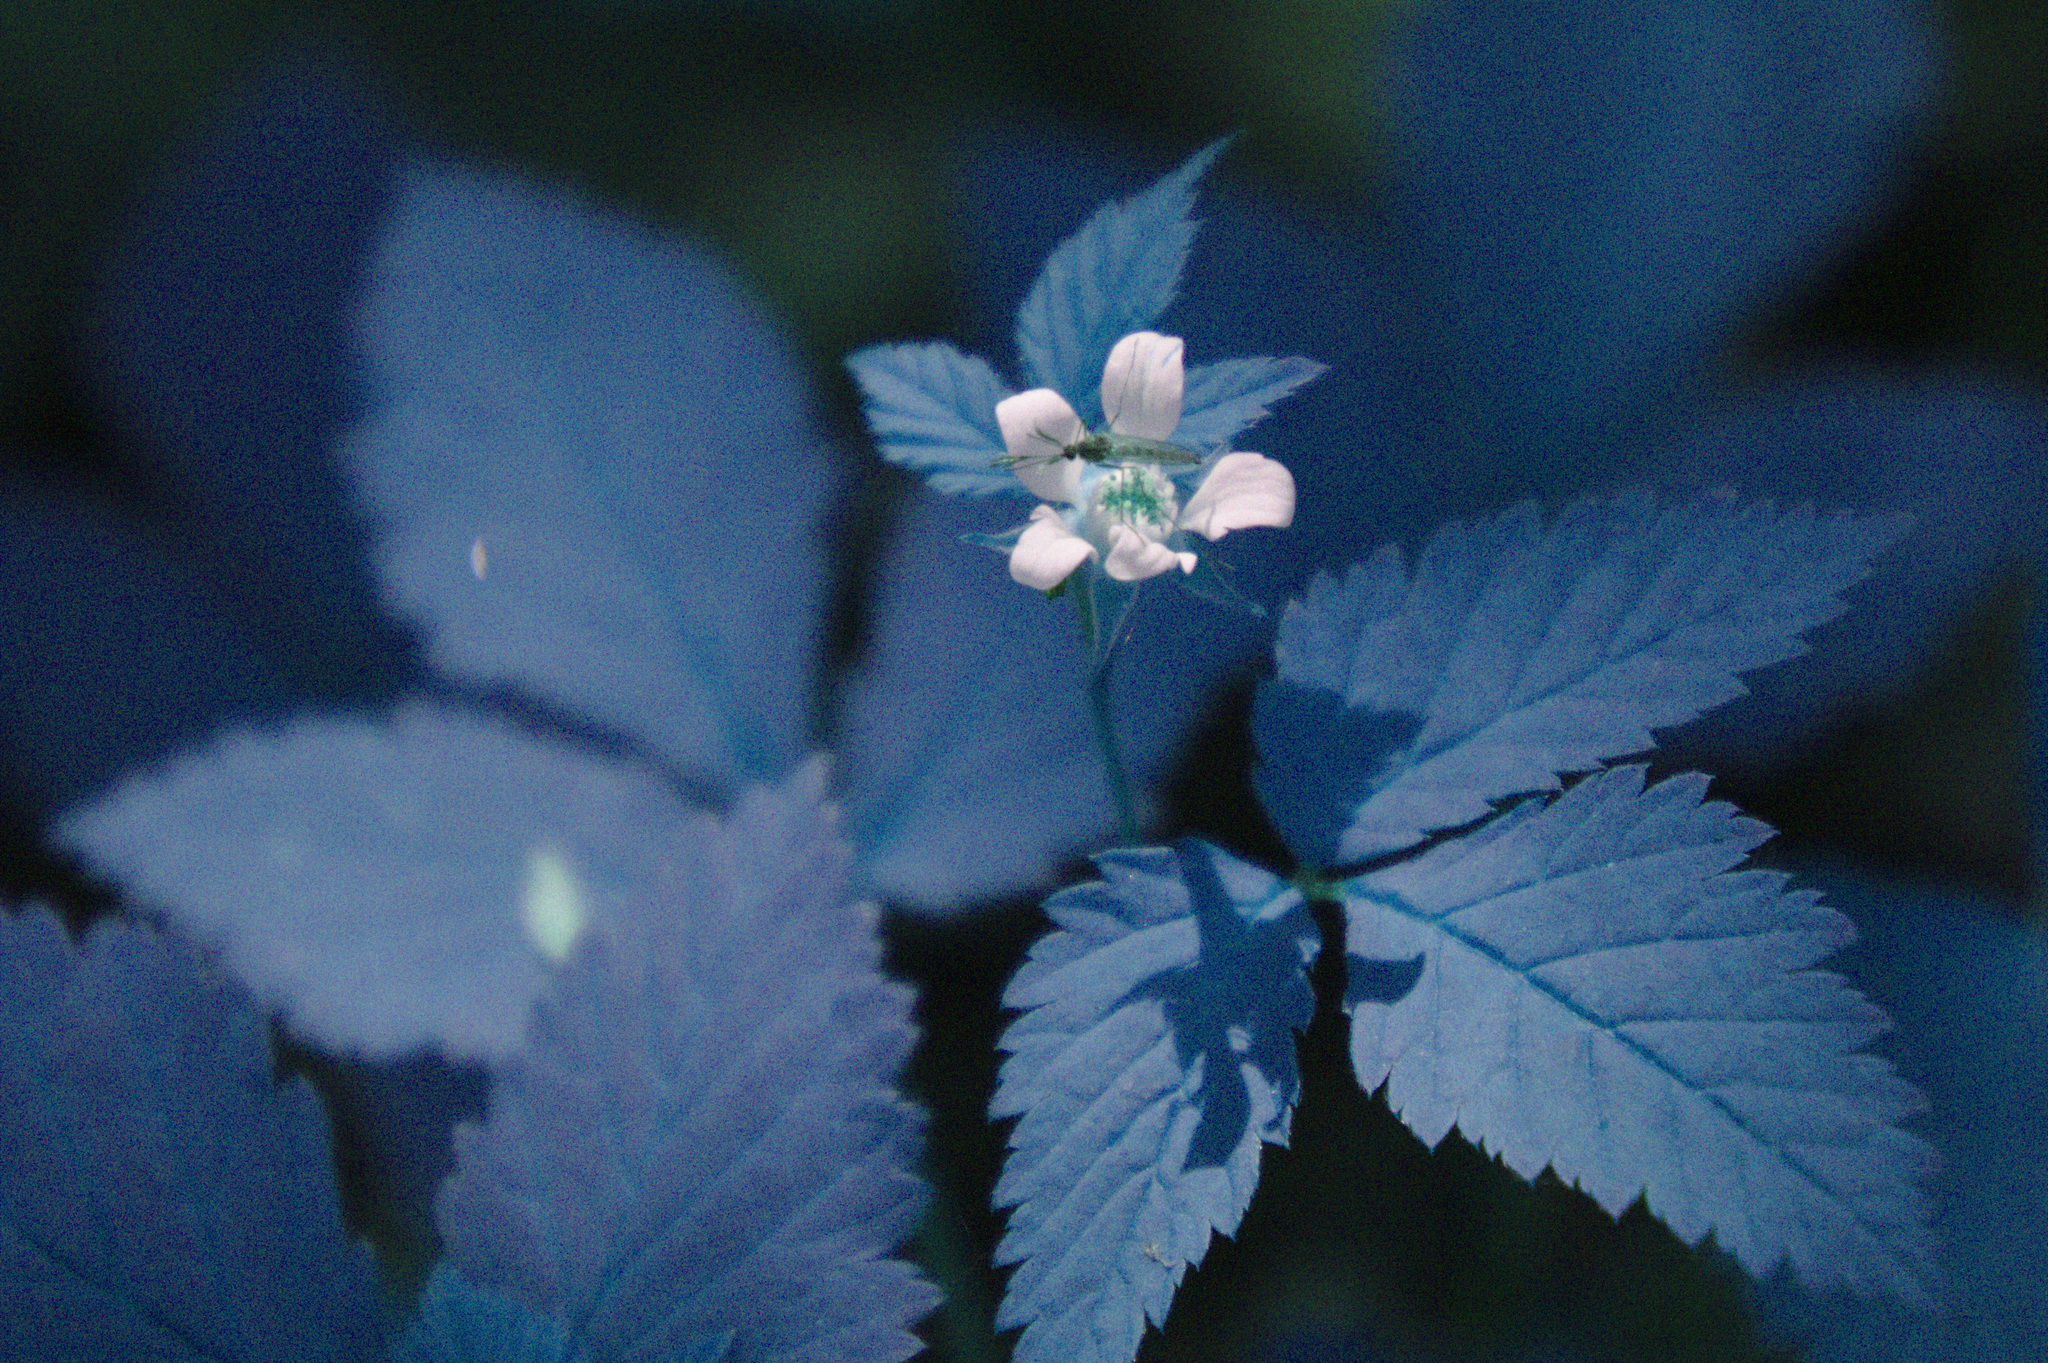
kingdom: Plantae
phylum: Tracheophyta
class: Magnoliopsida
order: Rosales
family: Rosaceae
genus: Rubus
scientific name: Rubus pubescens
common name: Dwarf raspberry
